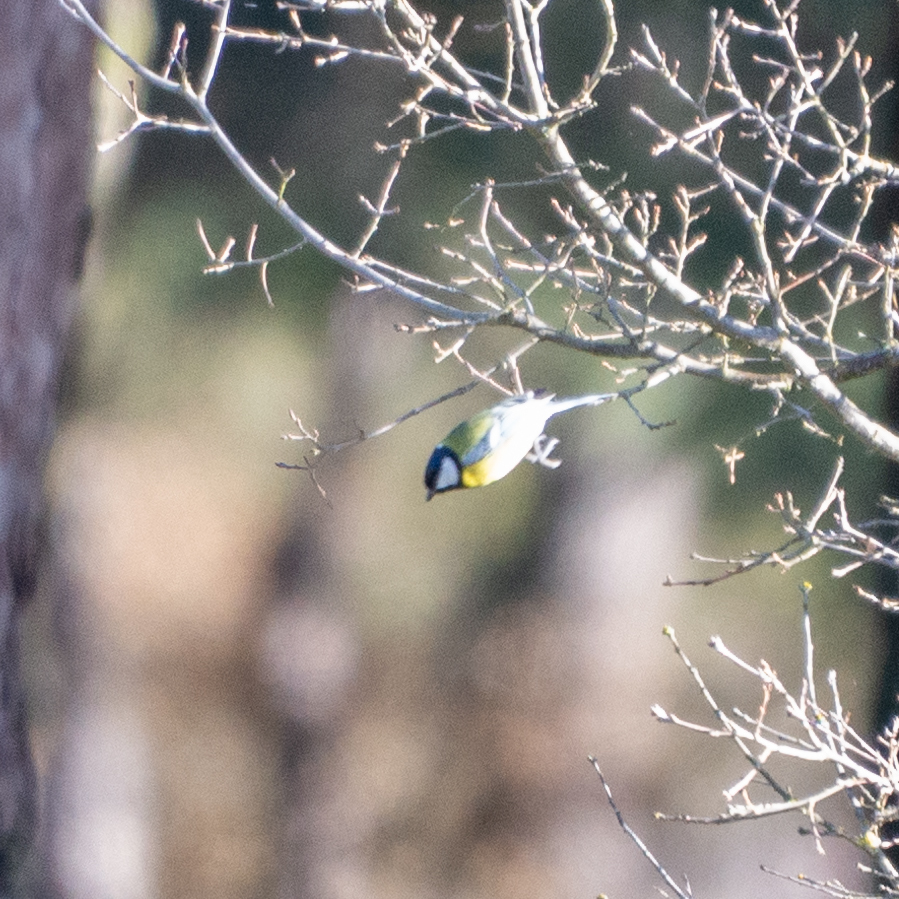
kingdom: Animalia
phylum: Chordata
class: Aves
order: Passeriformes
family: Paridae
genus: Parus
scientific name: Parus major
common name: Great tit
